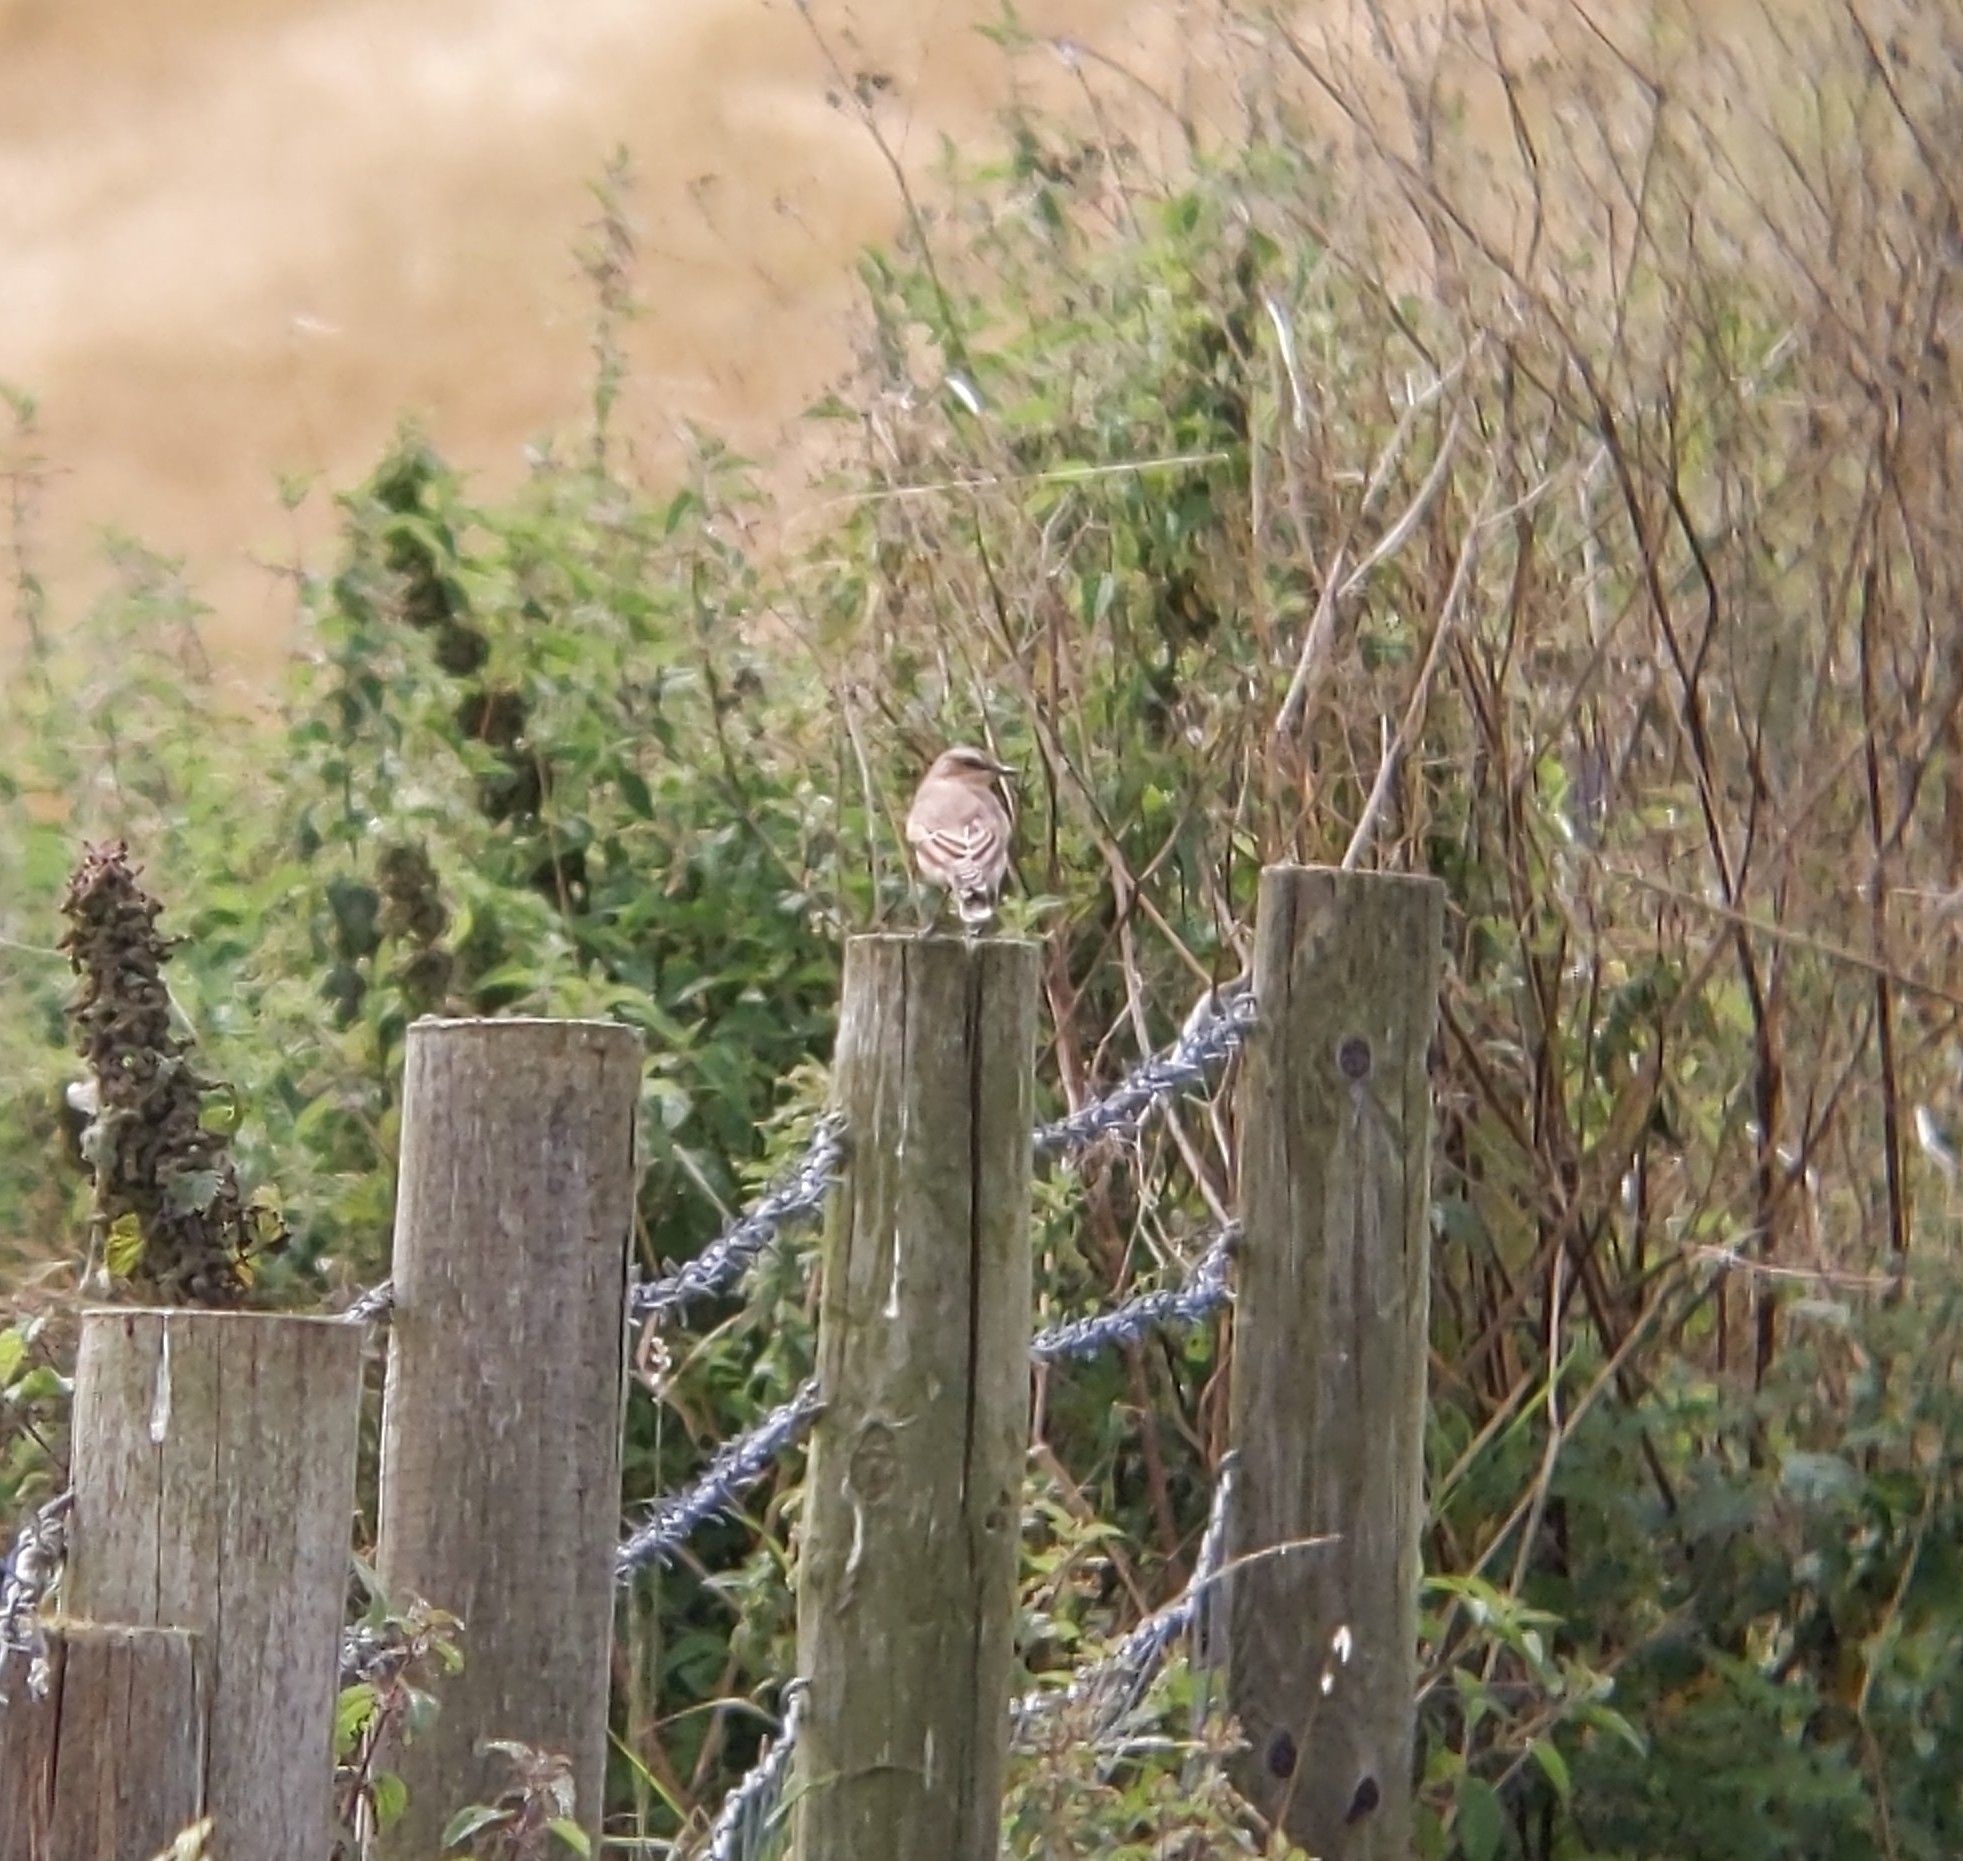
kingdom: Animalia
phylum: Chordata
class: Aves
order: Passeriformes
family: Muscicapidae
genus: Oenanthe
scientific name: Oenanthe oenanthe
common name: Northern wheatear
